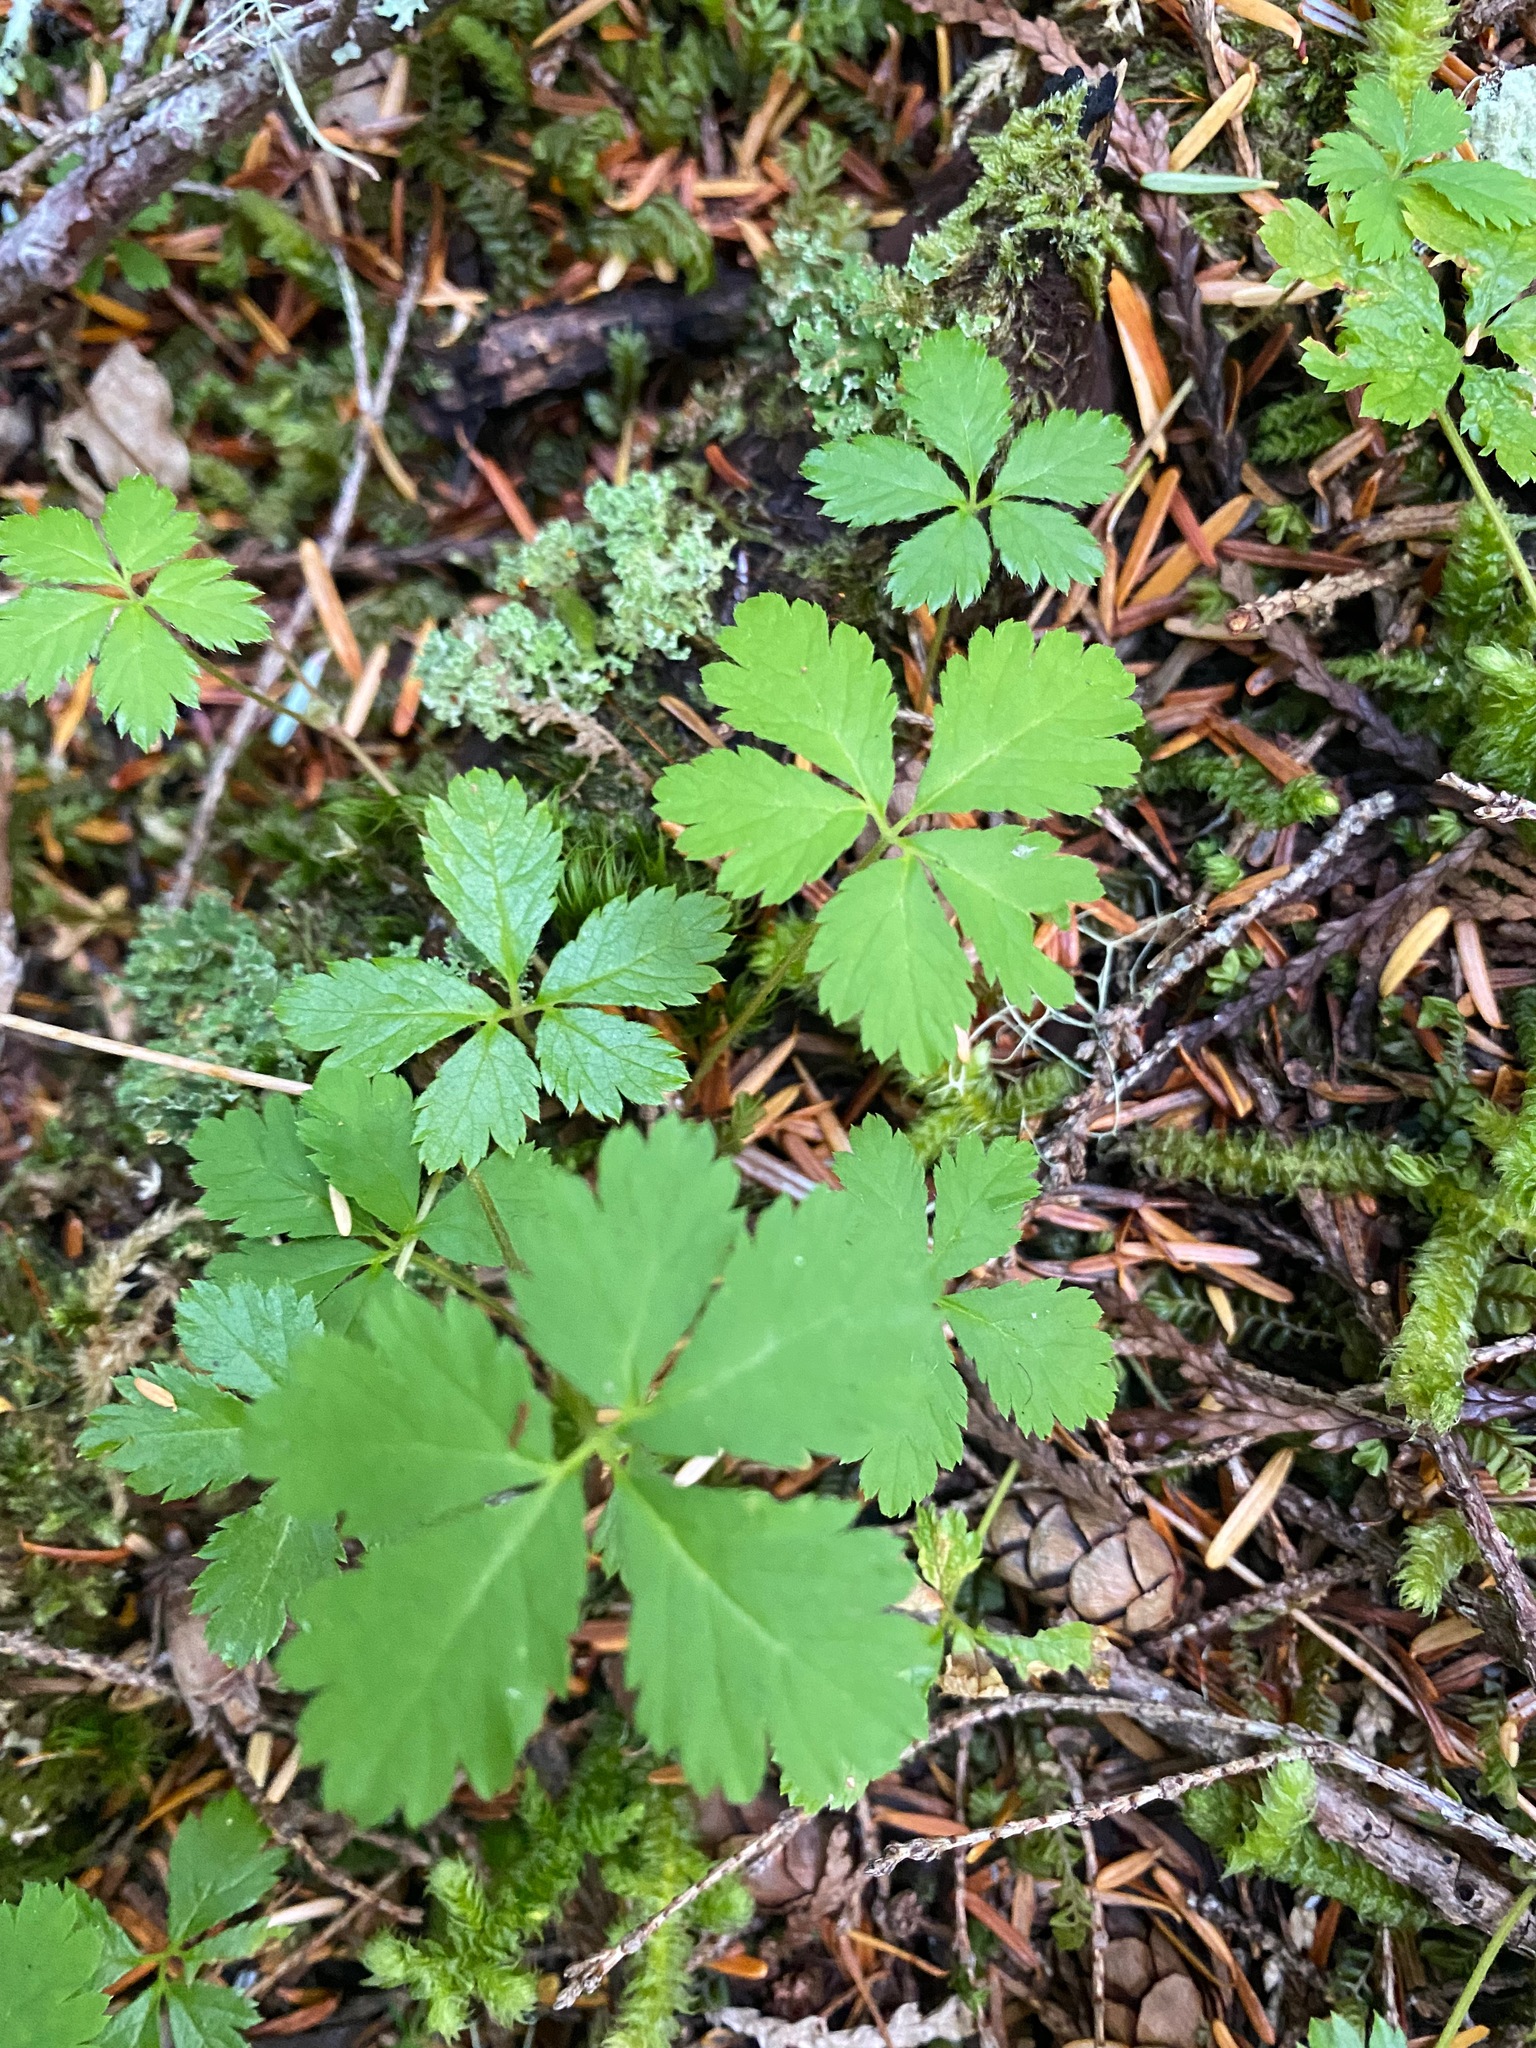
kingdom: Plantae
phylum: Tracheophyta
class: Magnoliopsida
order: Rosales
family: Rosaceae
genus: Rubus
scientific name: Rubus pedatus
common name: Creeping raspberry
